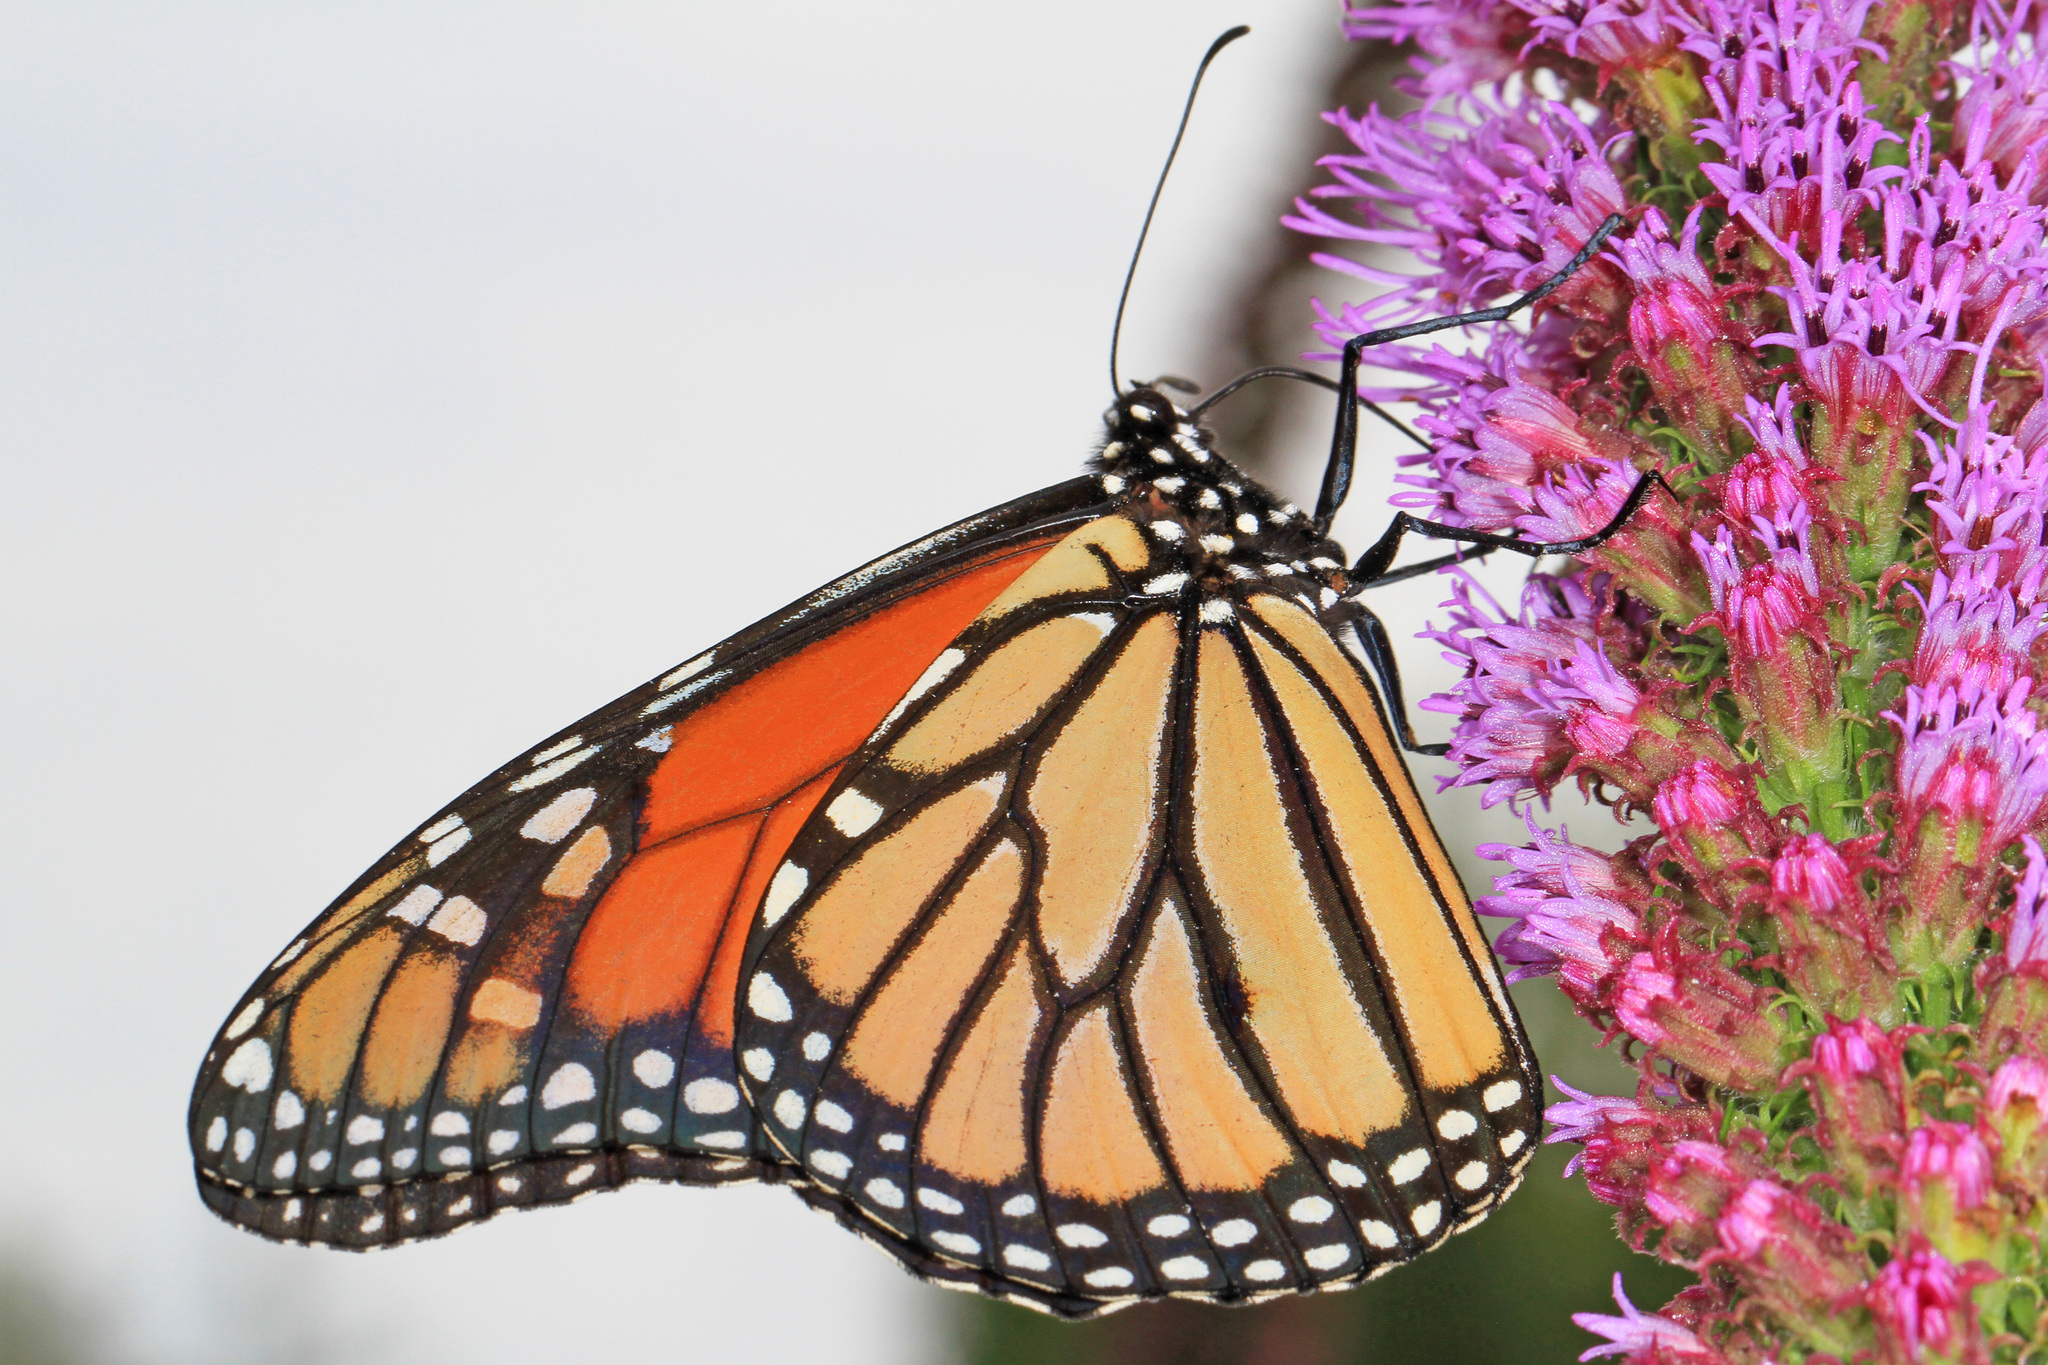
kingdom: Animalia
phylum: Arthropoda
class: Insecta
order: Lepidoptera
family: Nymphalidae
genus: Danaus
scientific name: Danaus plexippus
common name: Monarch
